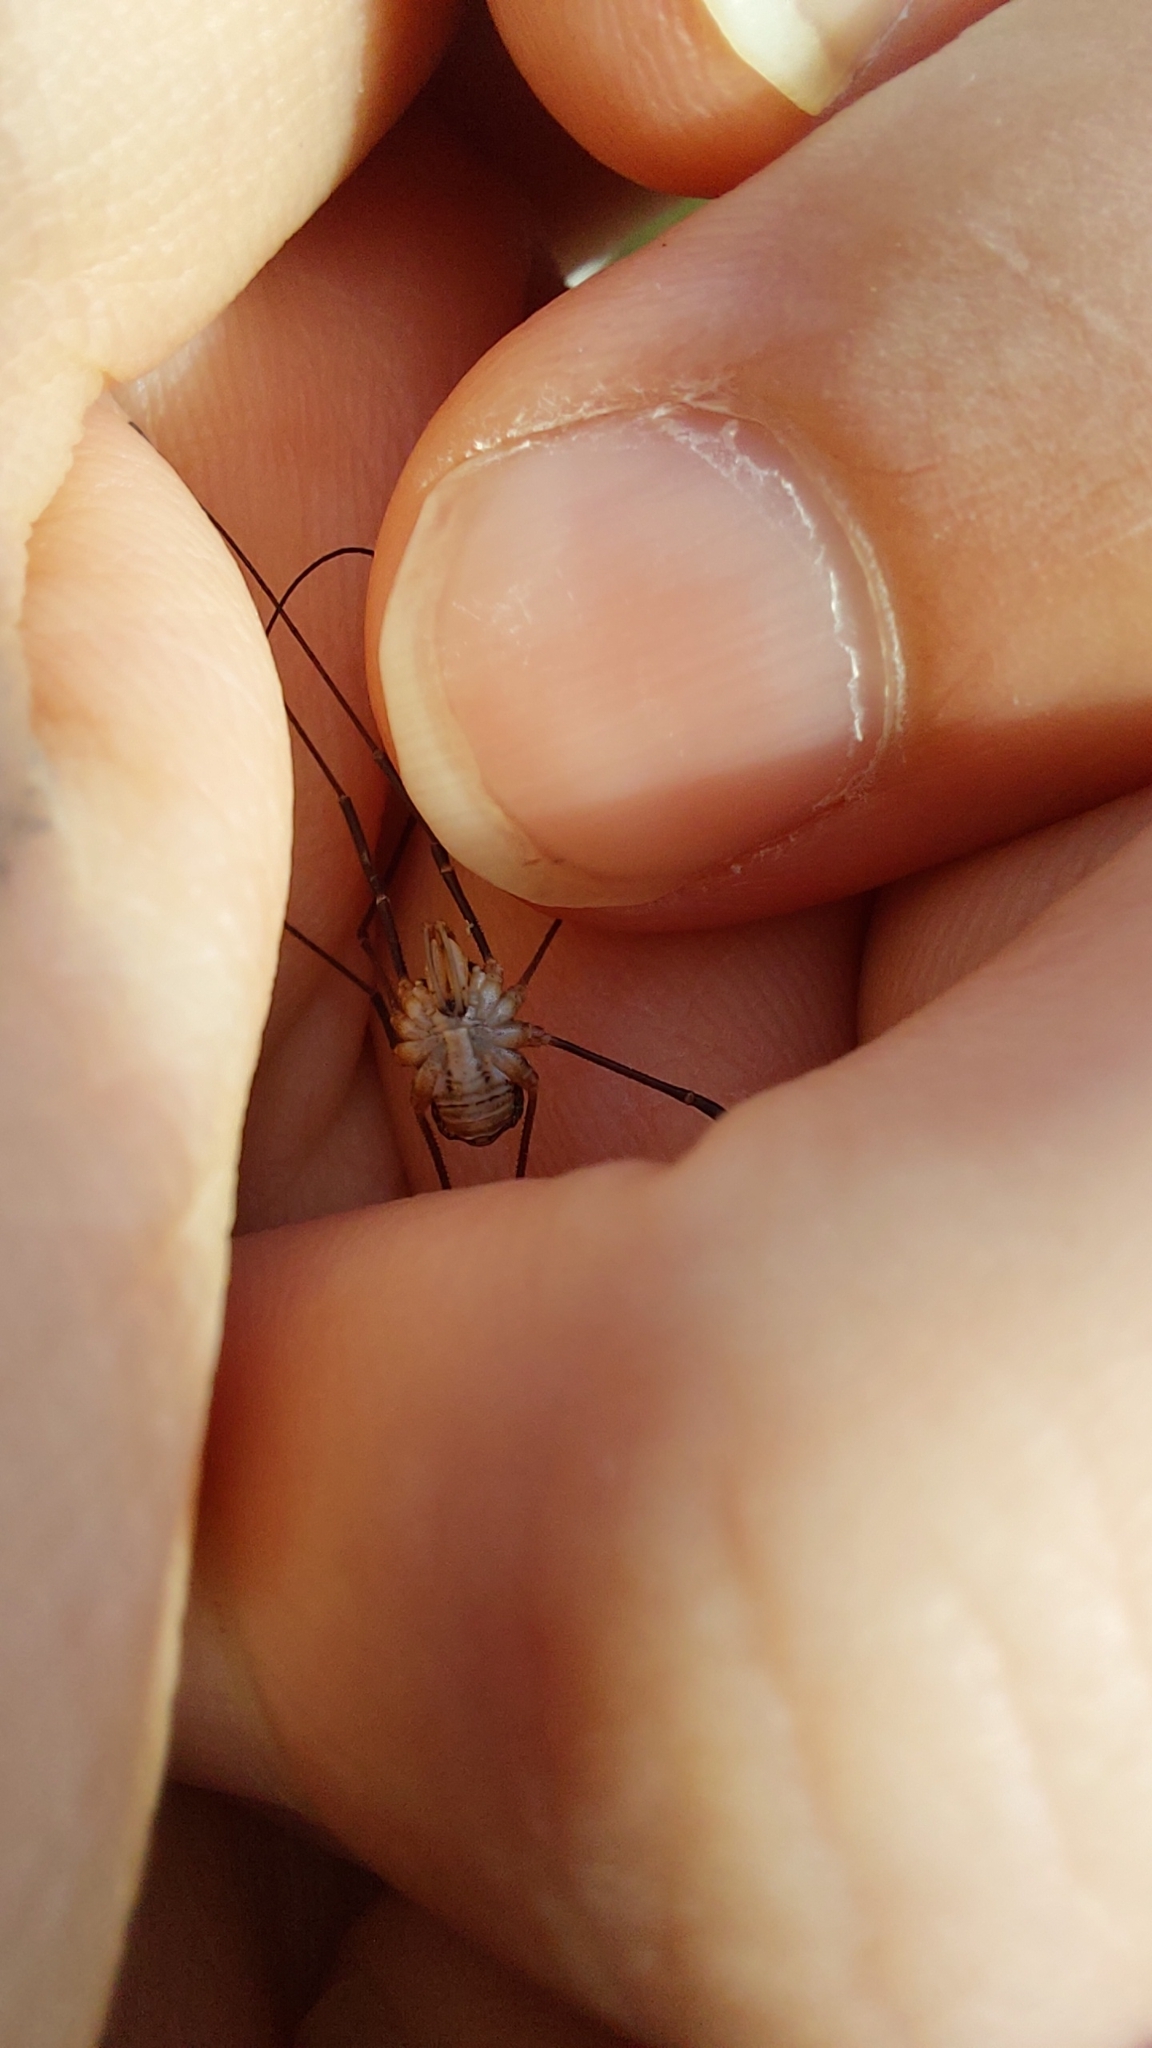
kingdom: Animalia
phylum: Arthropoda
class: Arachnida
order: Opiliones
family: Phalangiidae
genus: Phalangium
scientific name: Phalangium opilio
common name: Daddy longleg
